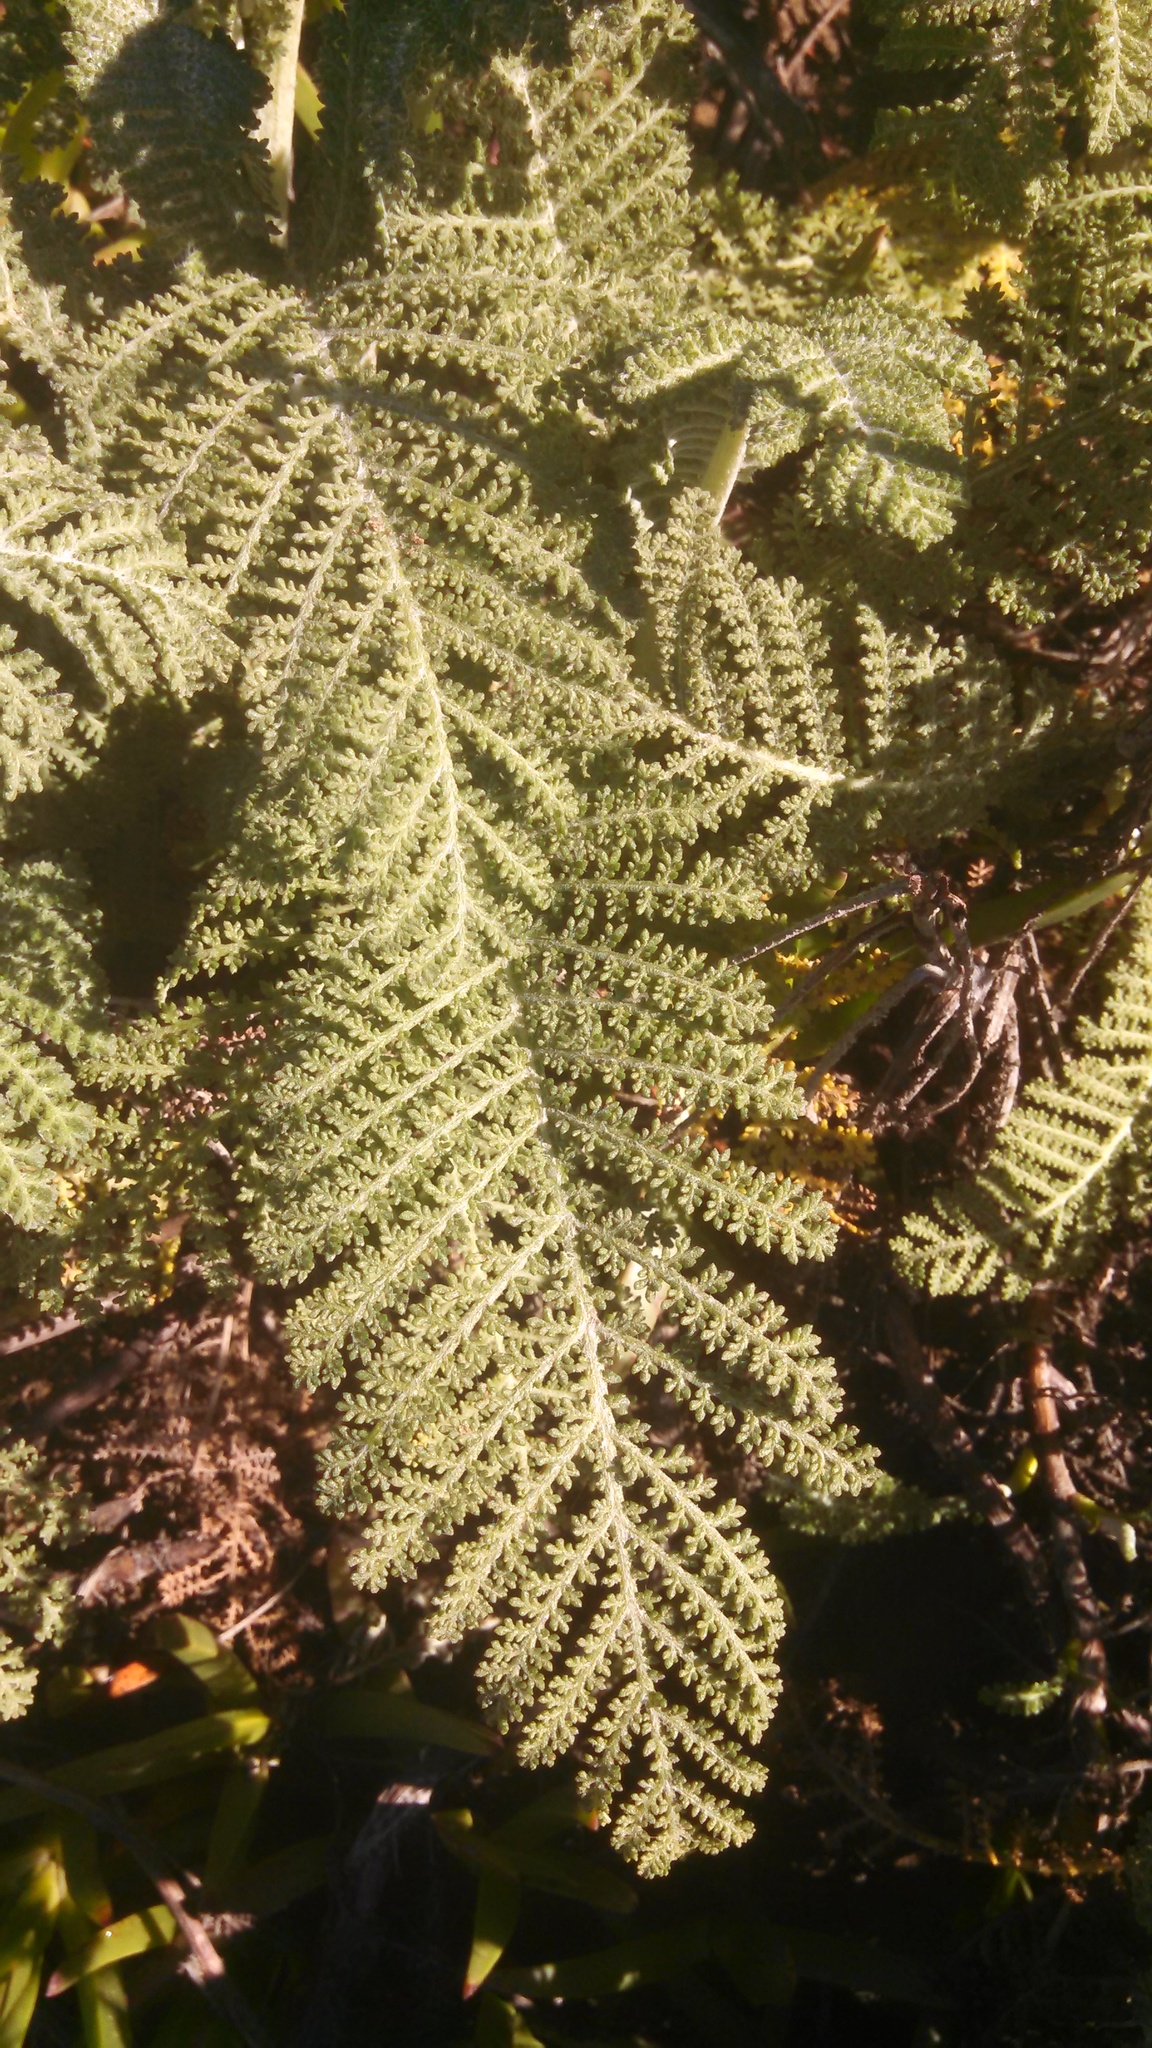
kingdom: Plantae
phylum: Tracheophyta
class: Magnoliopsida
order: Asterales
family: Asteraceae
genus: Tanacetum
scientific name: Tanacetum bipinnatum
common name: Dwarf tansy
